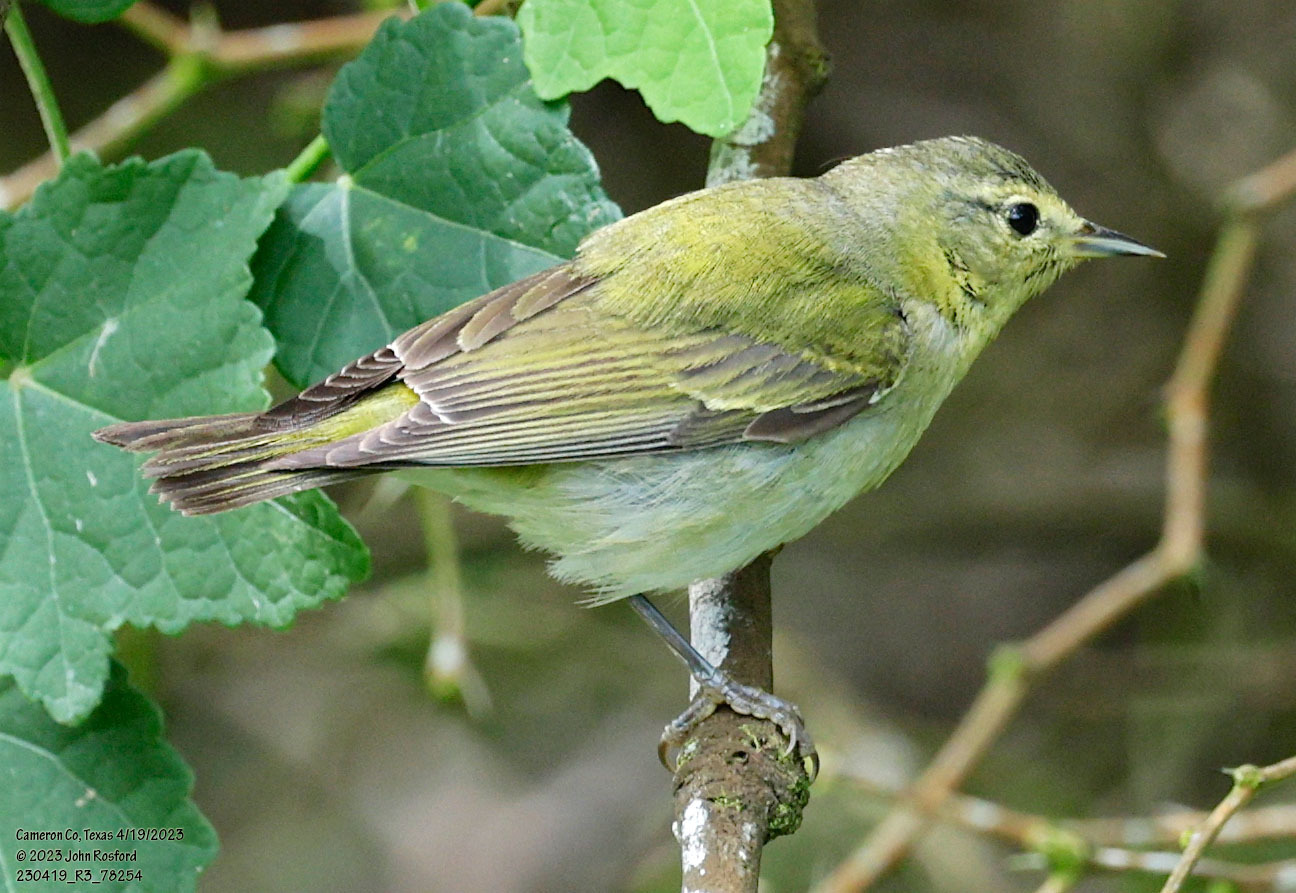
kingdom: Animalia
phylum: Chordata
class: Aves
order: Passeriformes
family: Parulidae
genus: Leiothlypis
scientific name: Leiothlypis peregrina
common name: Tennessee warbler
